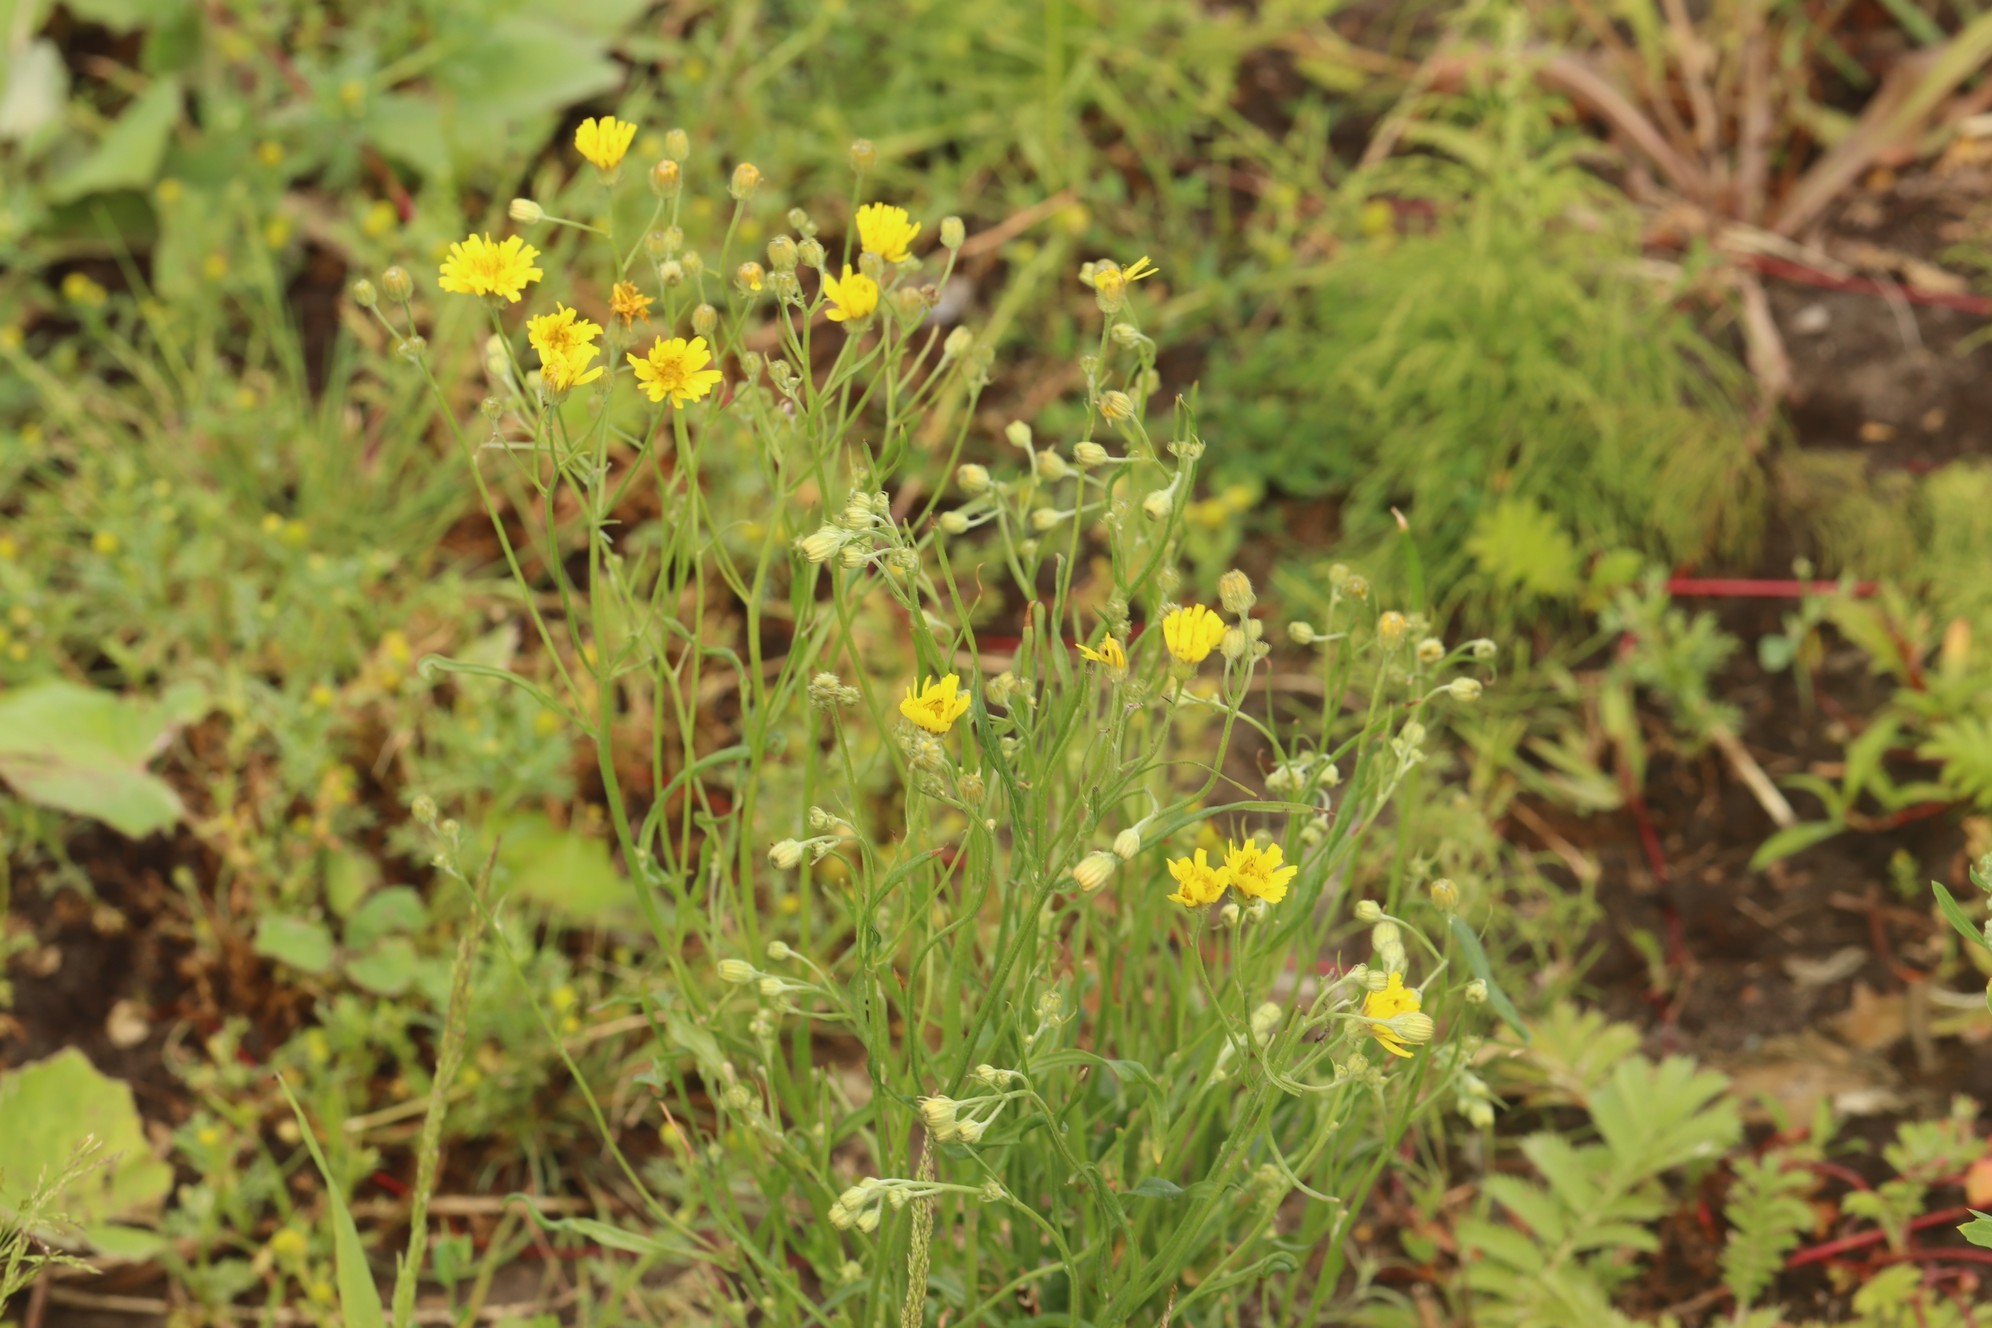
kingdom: Plantae
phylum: Tracheophyta
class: Magnoliopsida
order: Asterales
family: Asteraceae
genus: Crepis
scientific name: Crepis tectorum
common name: Narrow-leaved hawk's-beard
